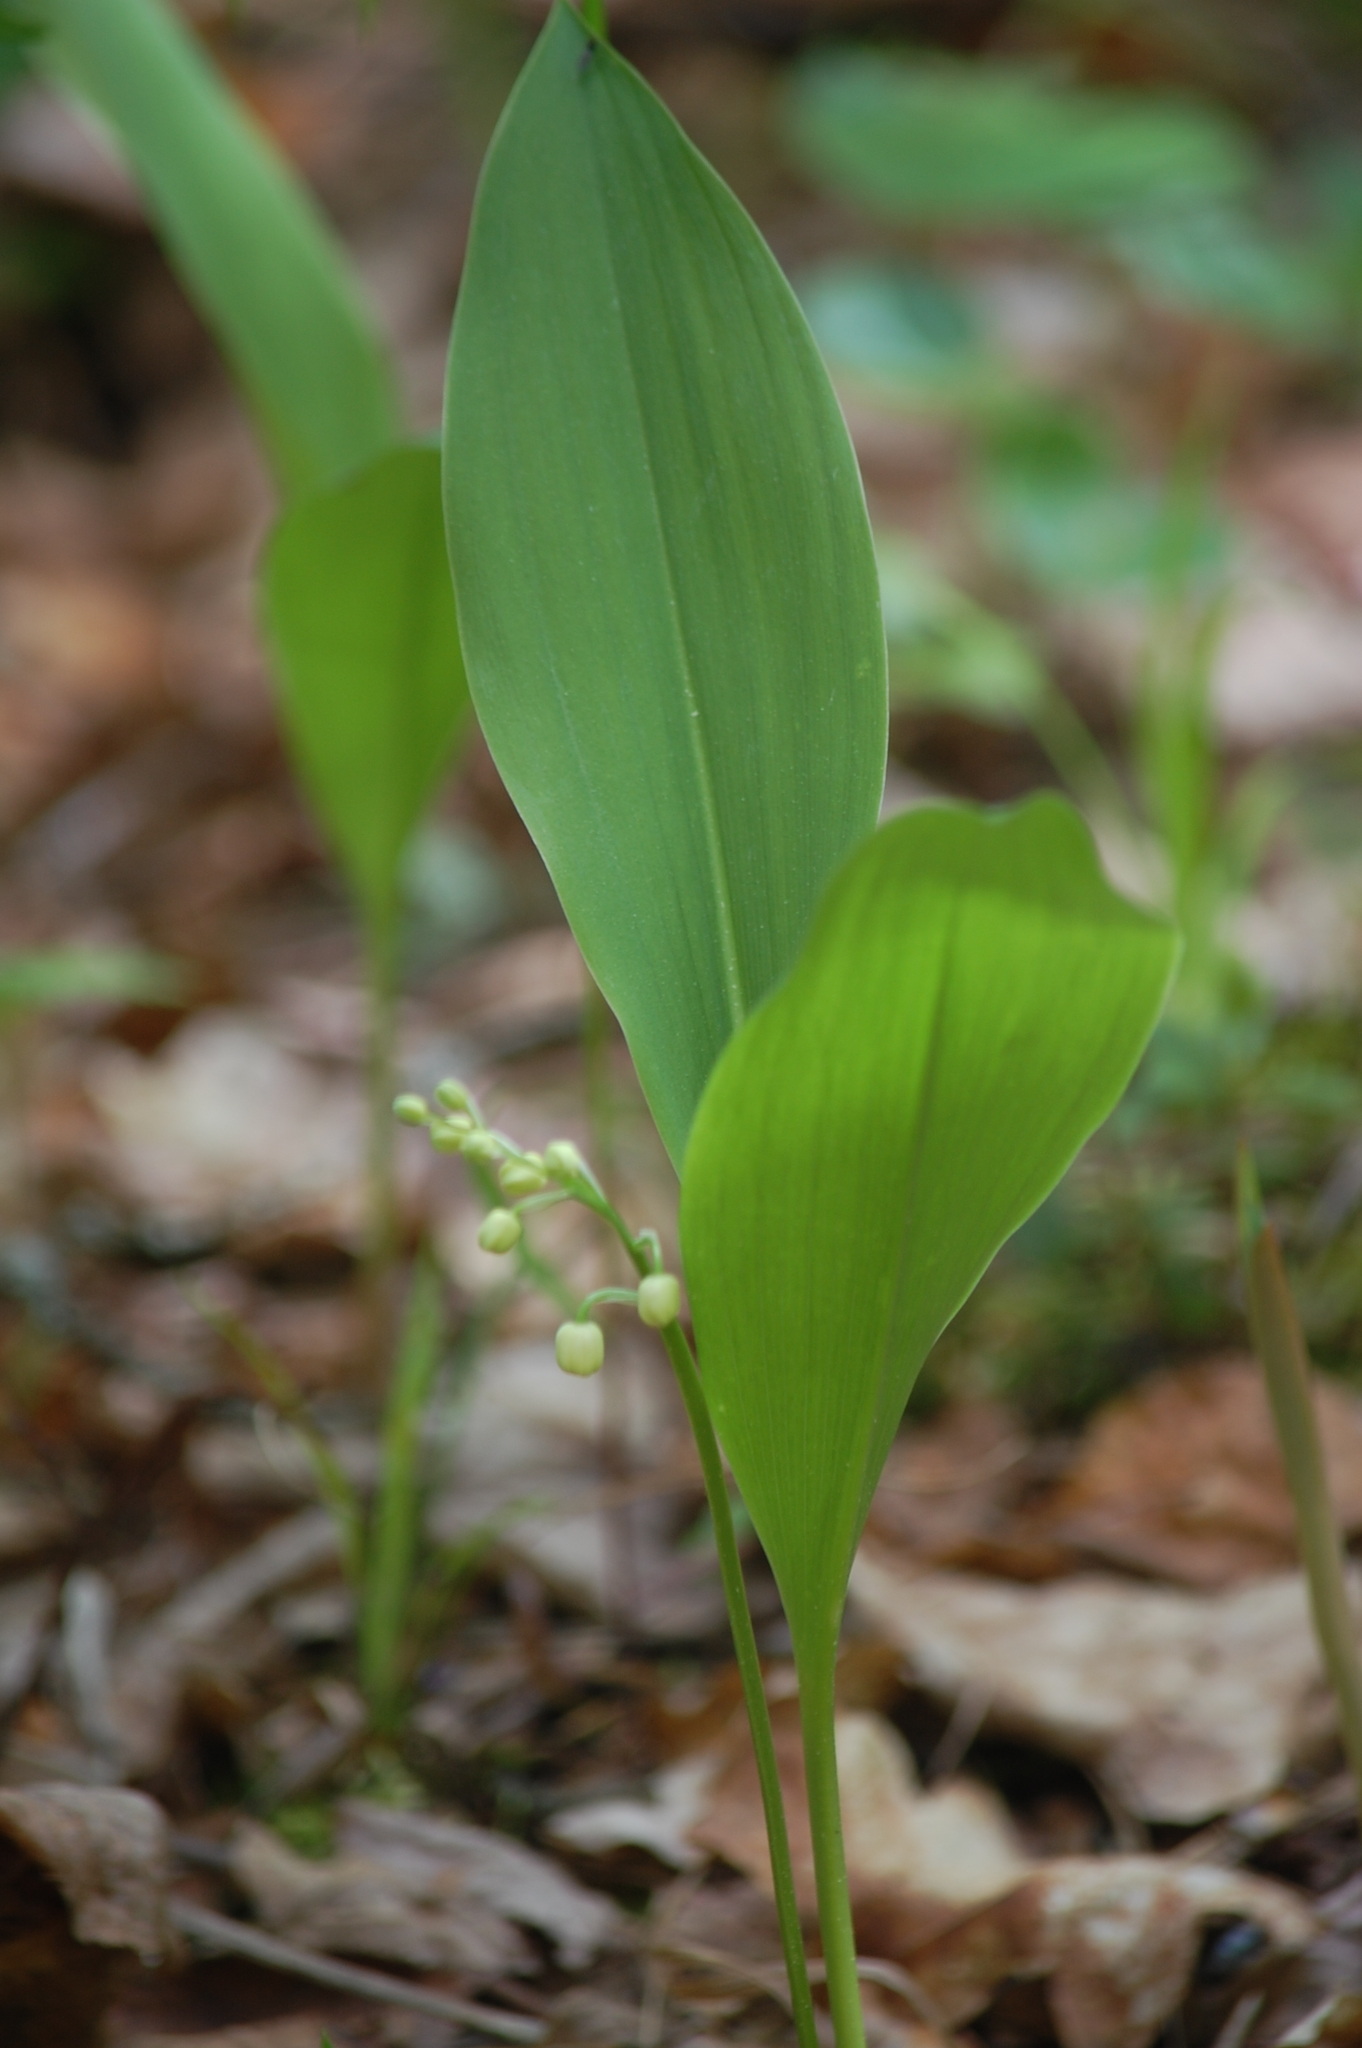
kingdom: Plantae
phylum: Tracheophyta
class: Liliopsida
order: Asparagales
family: Asparagaceae
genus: Convallaria
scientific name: Convallaria majalis
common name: Lily-of-the-valley
